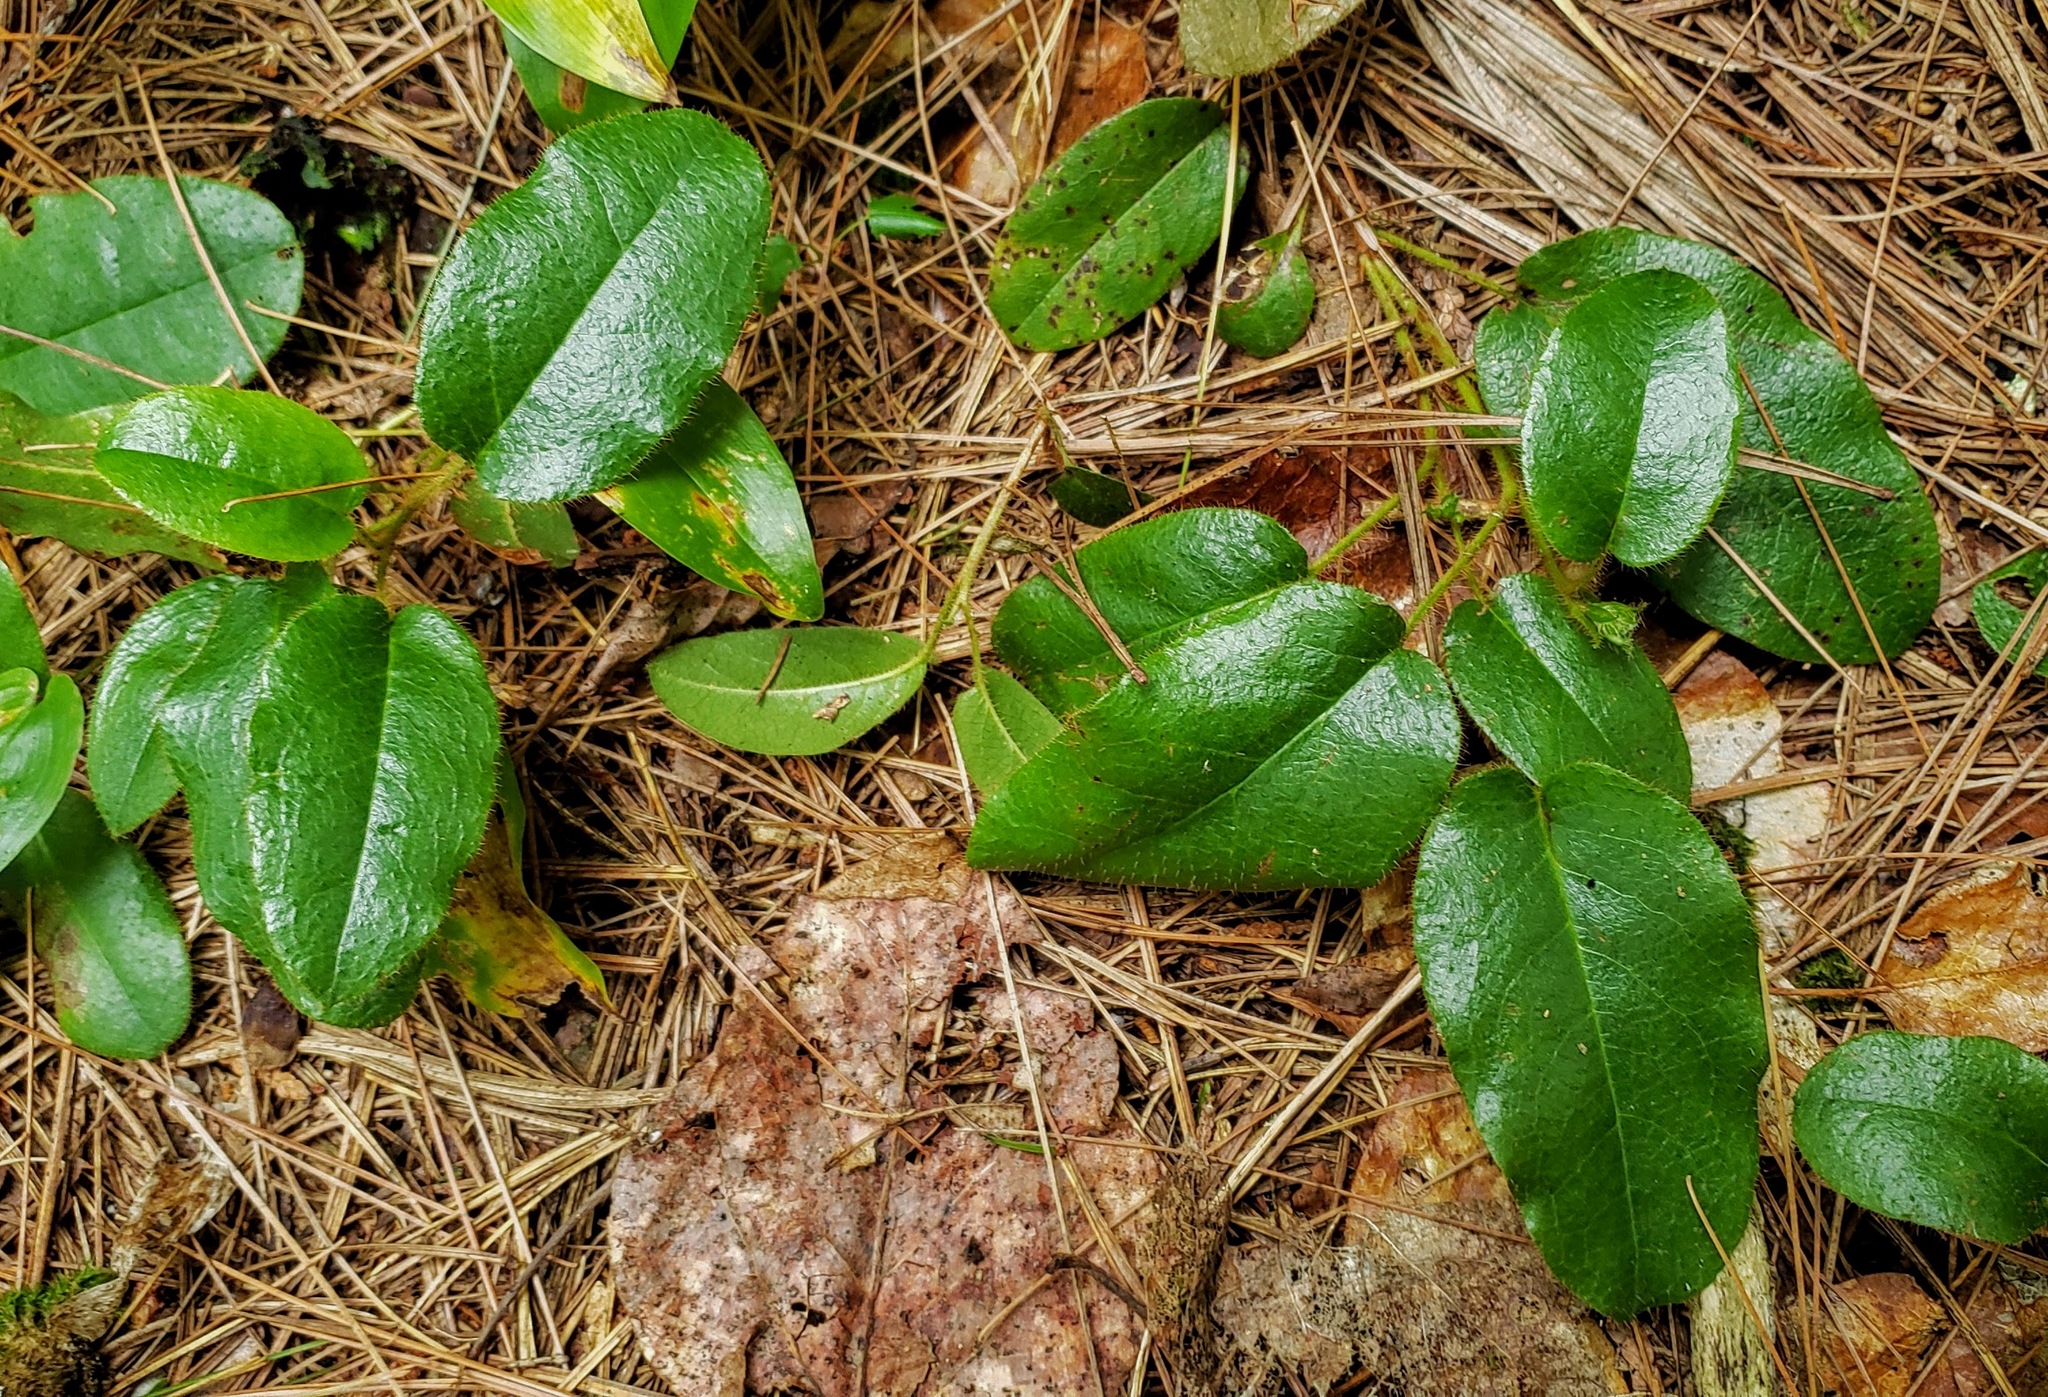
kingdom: Plantae
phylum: Tracheophyta
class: Magnoliopsida
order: Ericales
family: Ericaceae
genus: Epigaea
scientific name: Epigaea repens
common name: Gravelroot
